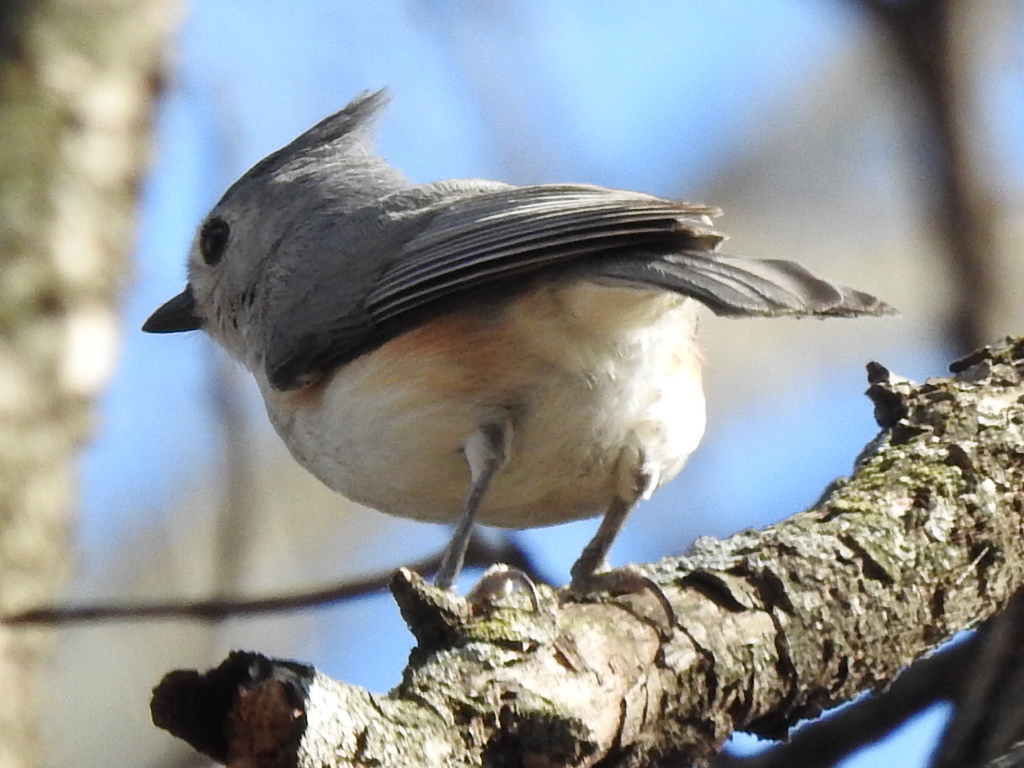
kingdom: Animalia
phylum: Chordata
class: Aves
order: Passeriformes
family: Paridae
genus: Baeolophus
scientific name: Baeolophus bicolor
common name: Tufted titmouse
